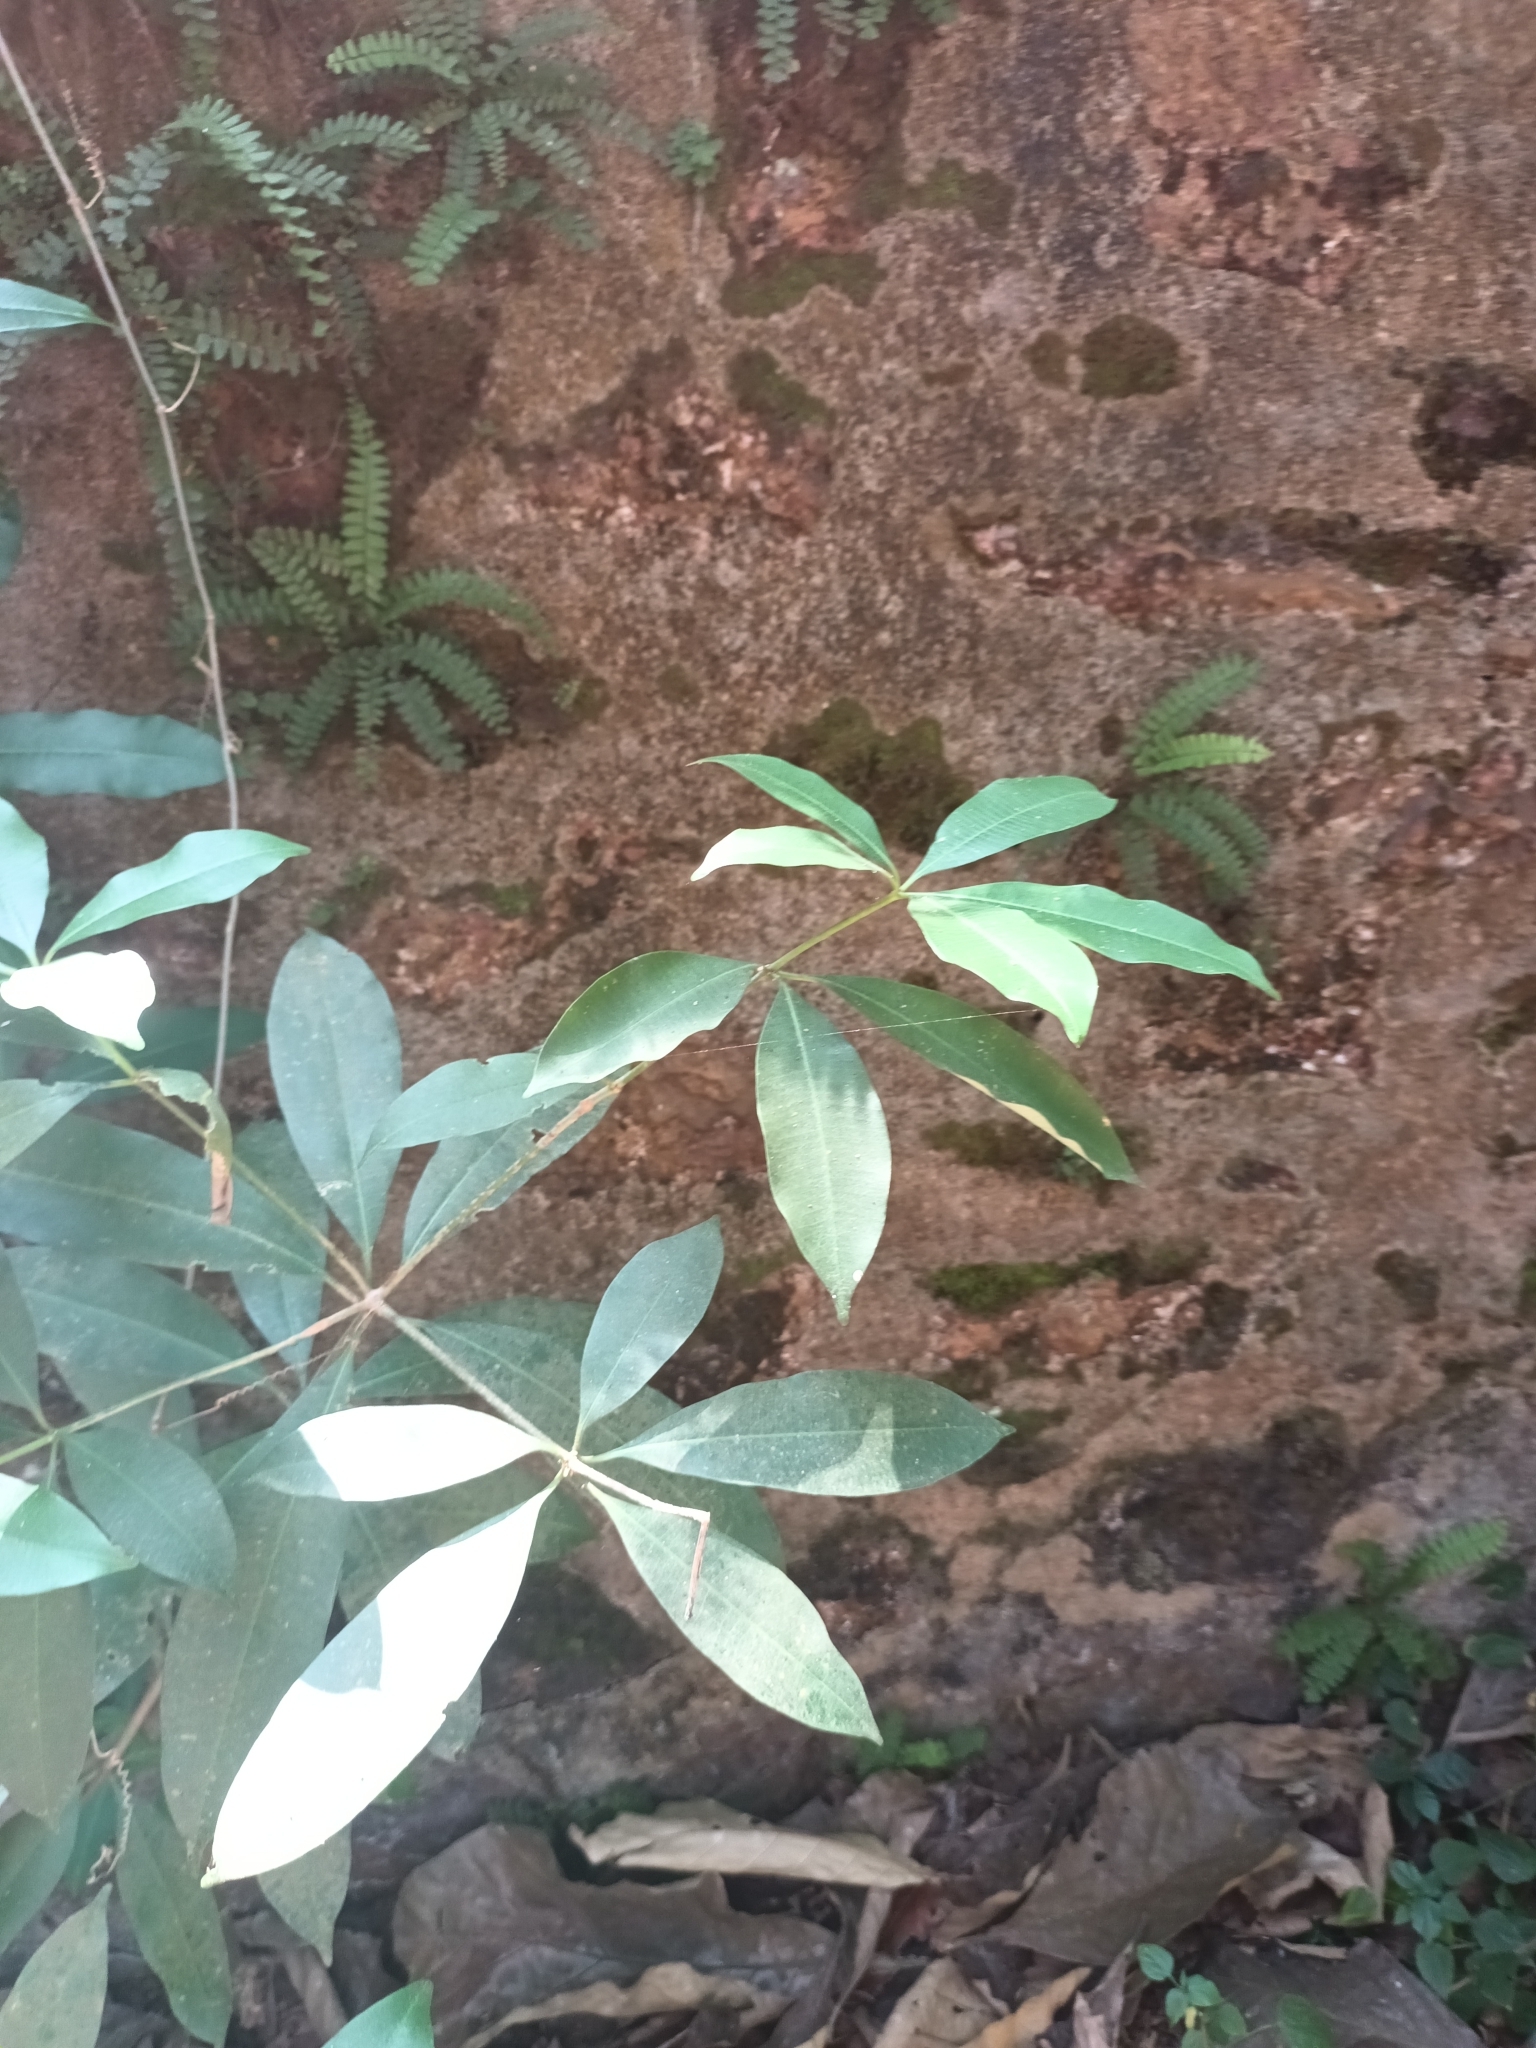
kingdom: Plantae
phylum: Tracheophyta
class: Magnoliopsida
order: Gentianales
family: Apocynaceae
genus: Alstonia
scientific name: Alstonia scholaris
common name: White cheesewood
